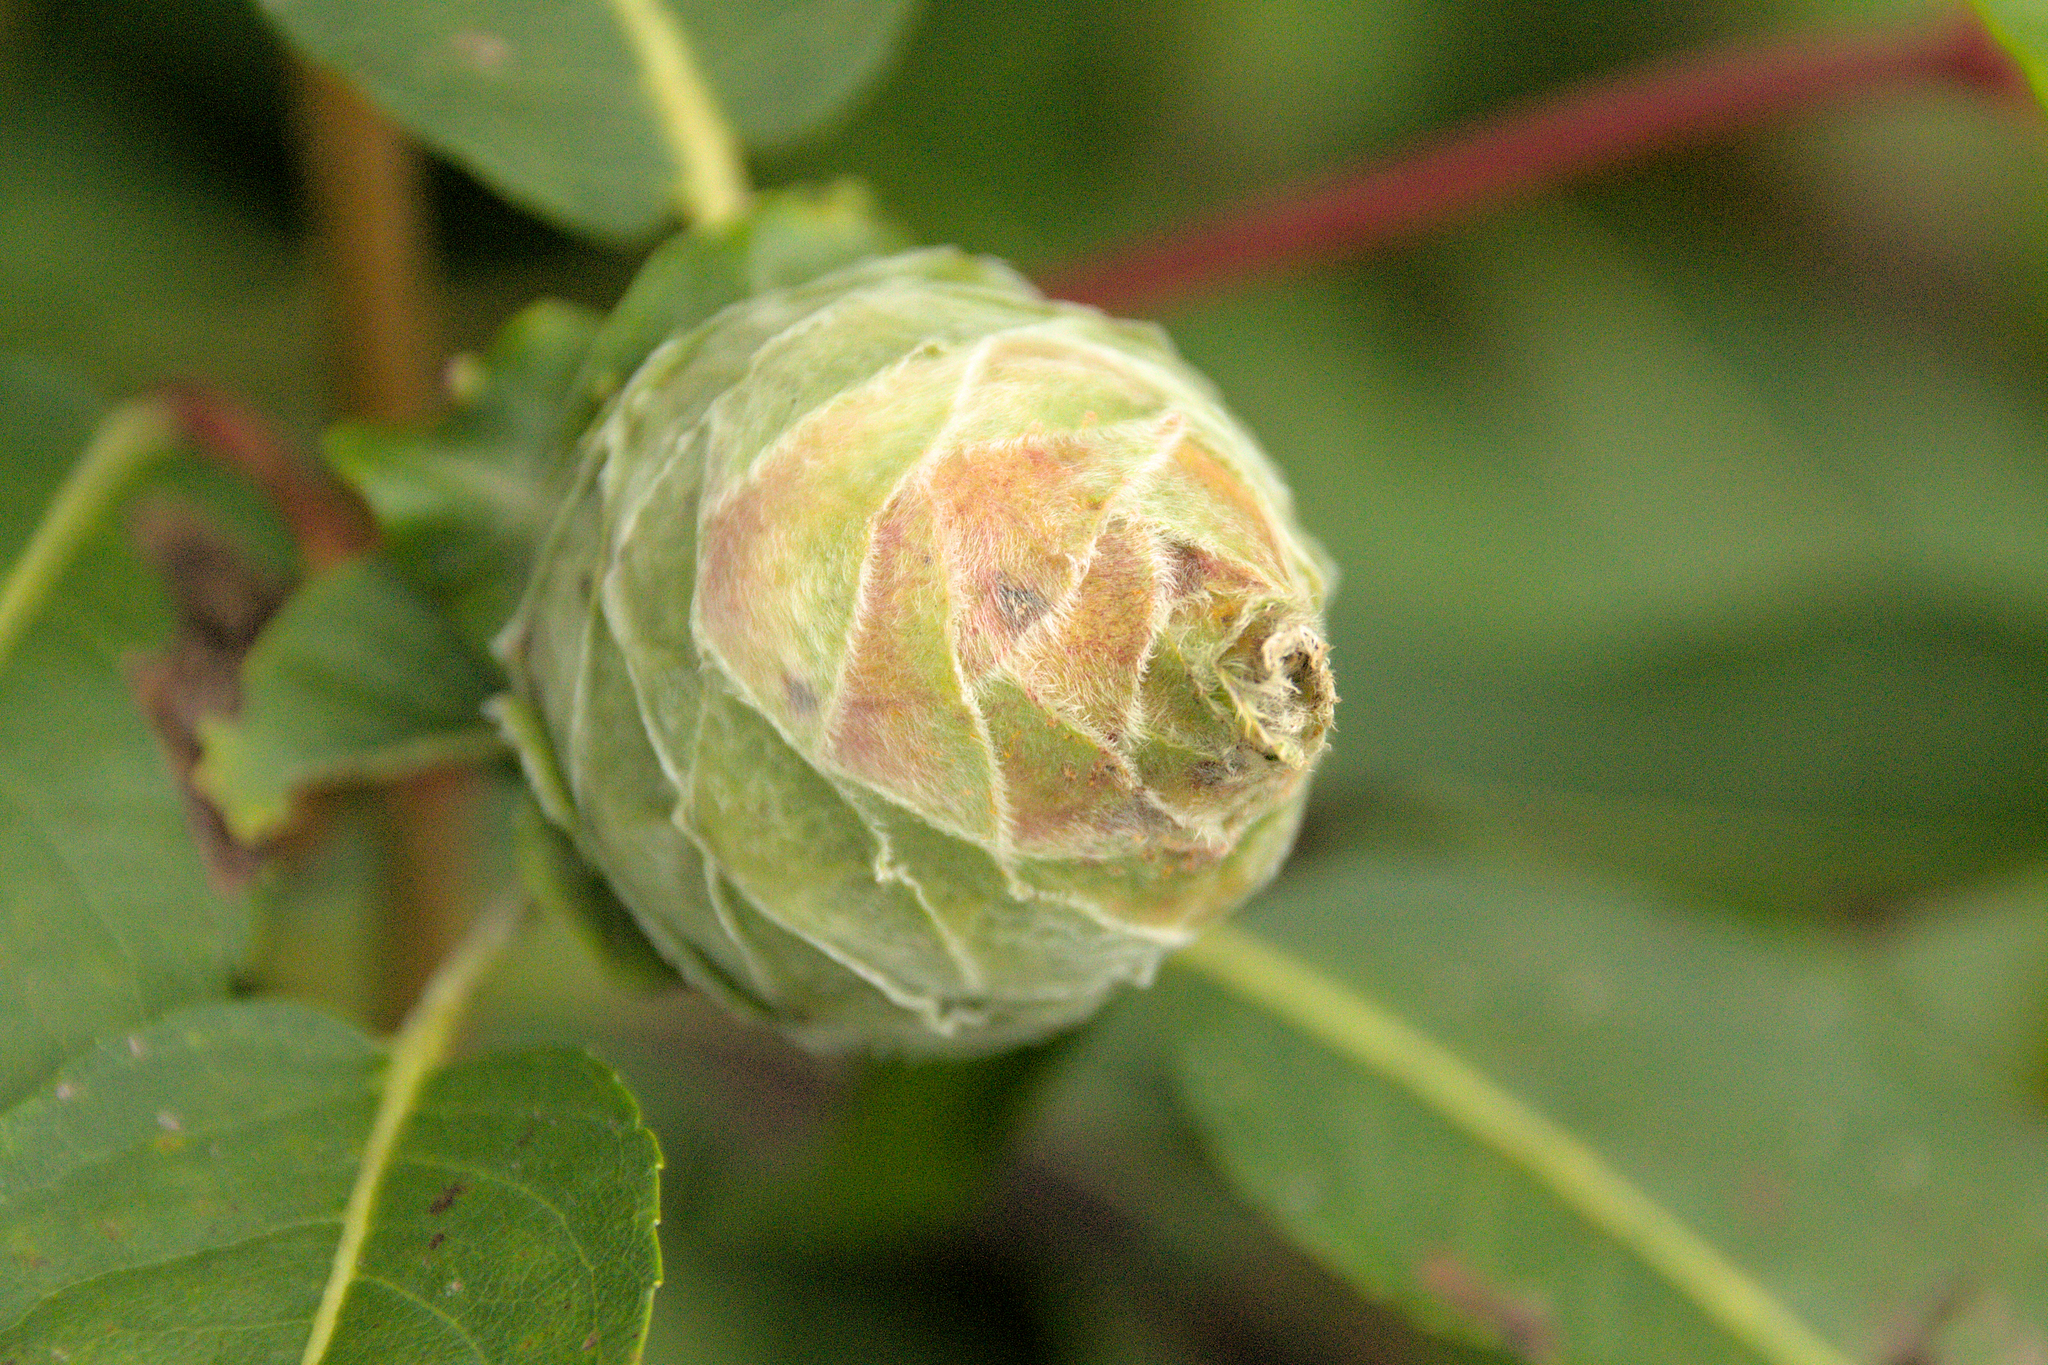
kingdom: Animalia
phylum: Arthropoda
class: Insecta
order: Diptera
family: Cecidomyiidae
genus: Rabdophaga
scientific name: Rabdophaga strobiloides
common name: Willow pinecone gall midge
